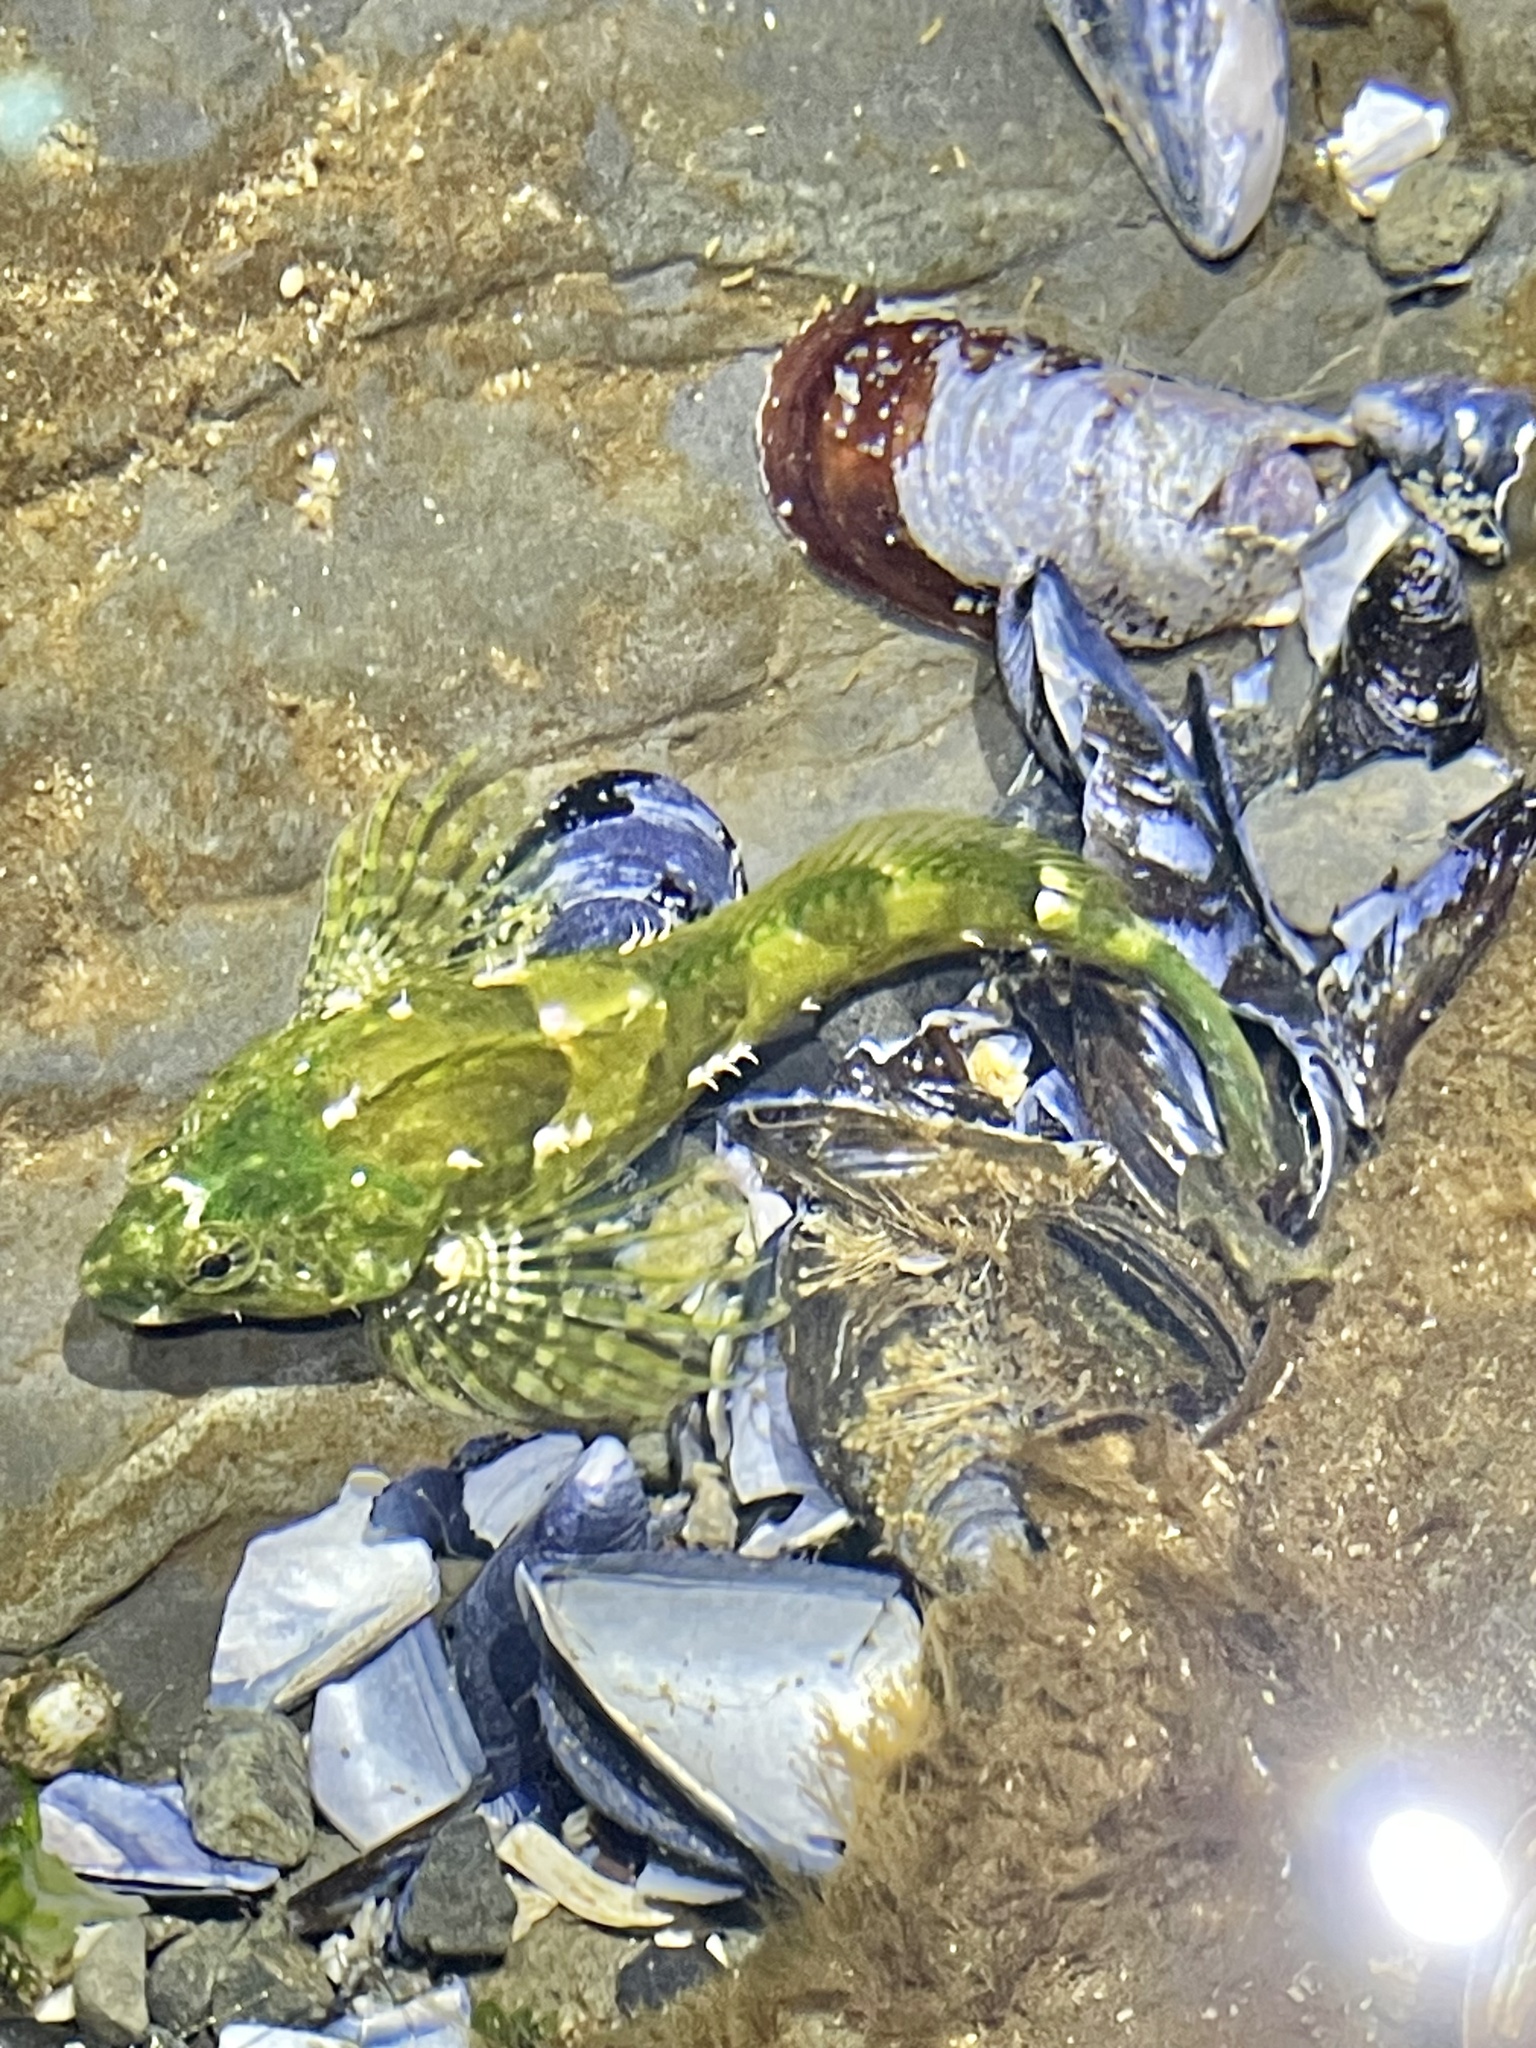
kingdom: Animalia
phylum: Chordata
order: Scorpaeniformes
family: Cottidae
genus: Oligocottus
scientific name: Oligocottus maculosus
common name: Tidepool sculpin
